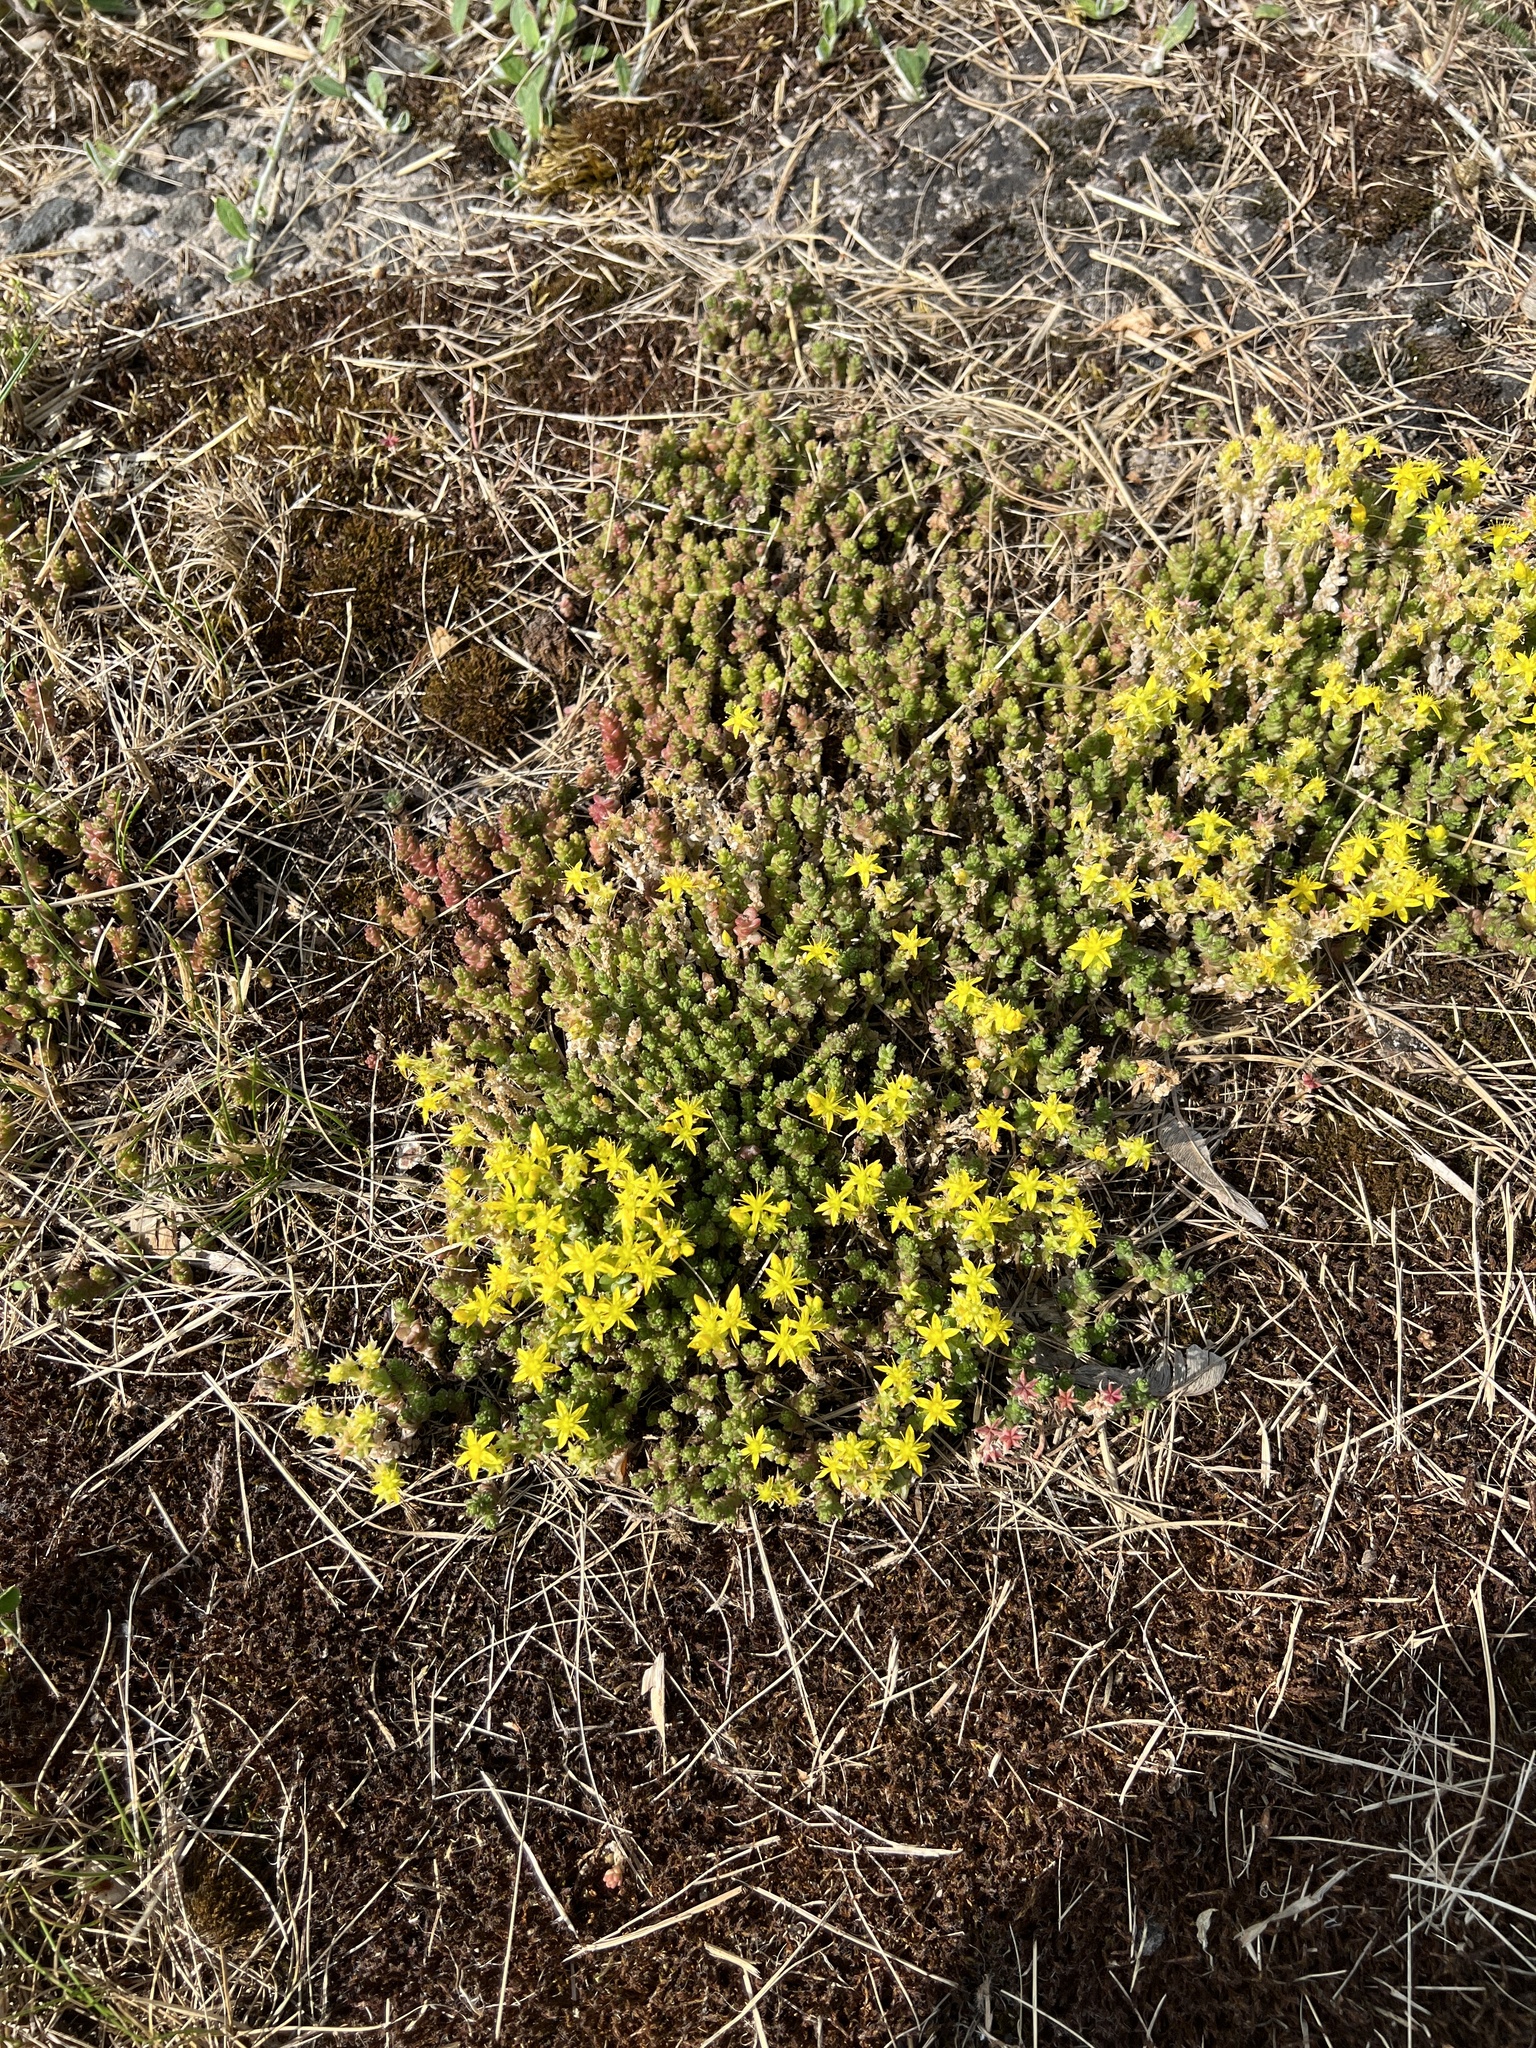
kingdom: Plantae
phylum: Tracheophyta
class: Magnoliopsida
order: Saxifragales
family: Crassulaceae
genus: Sedum
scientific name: Sedum acre
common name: Biting stonecrop
